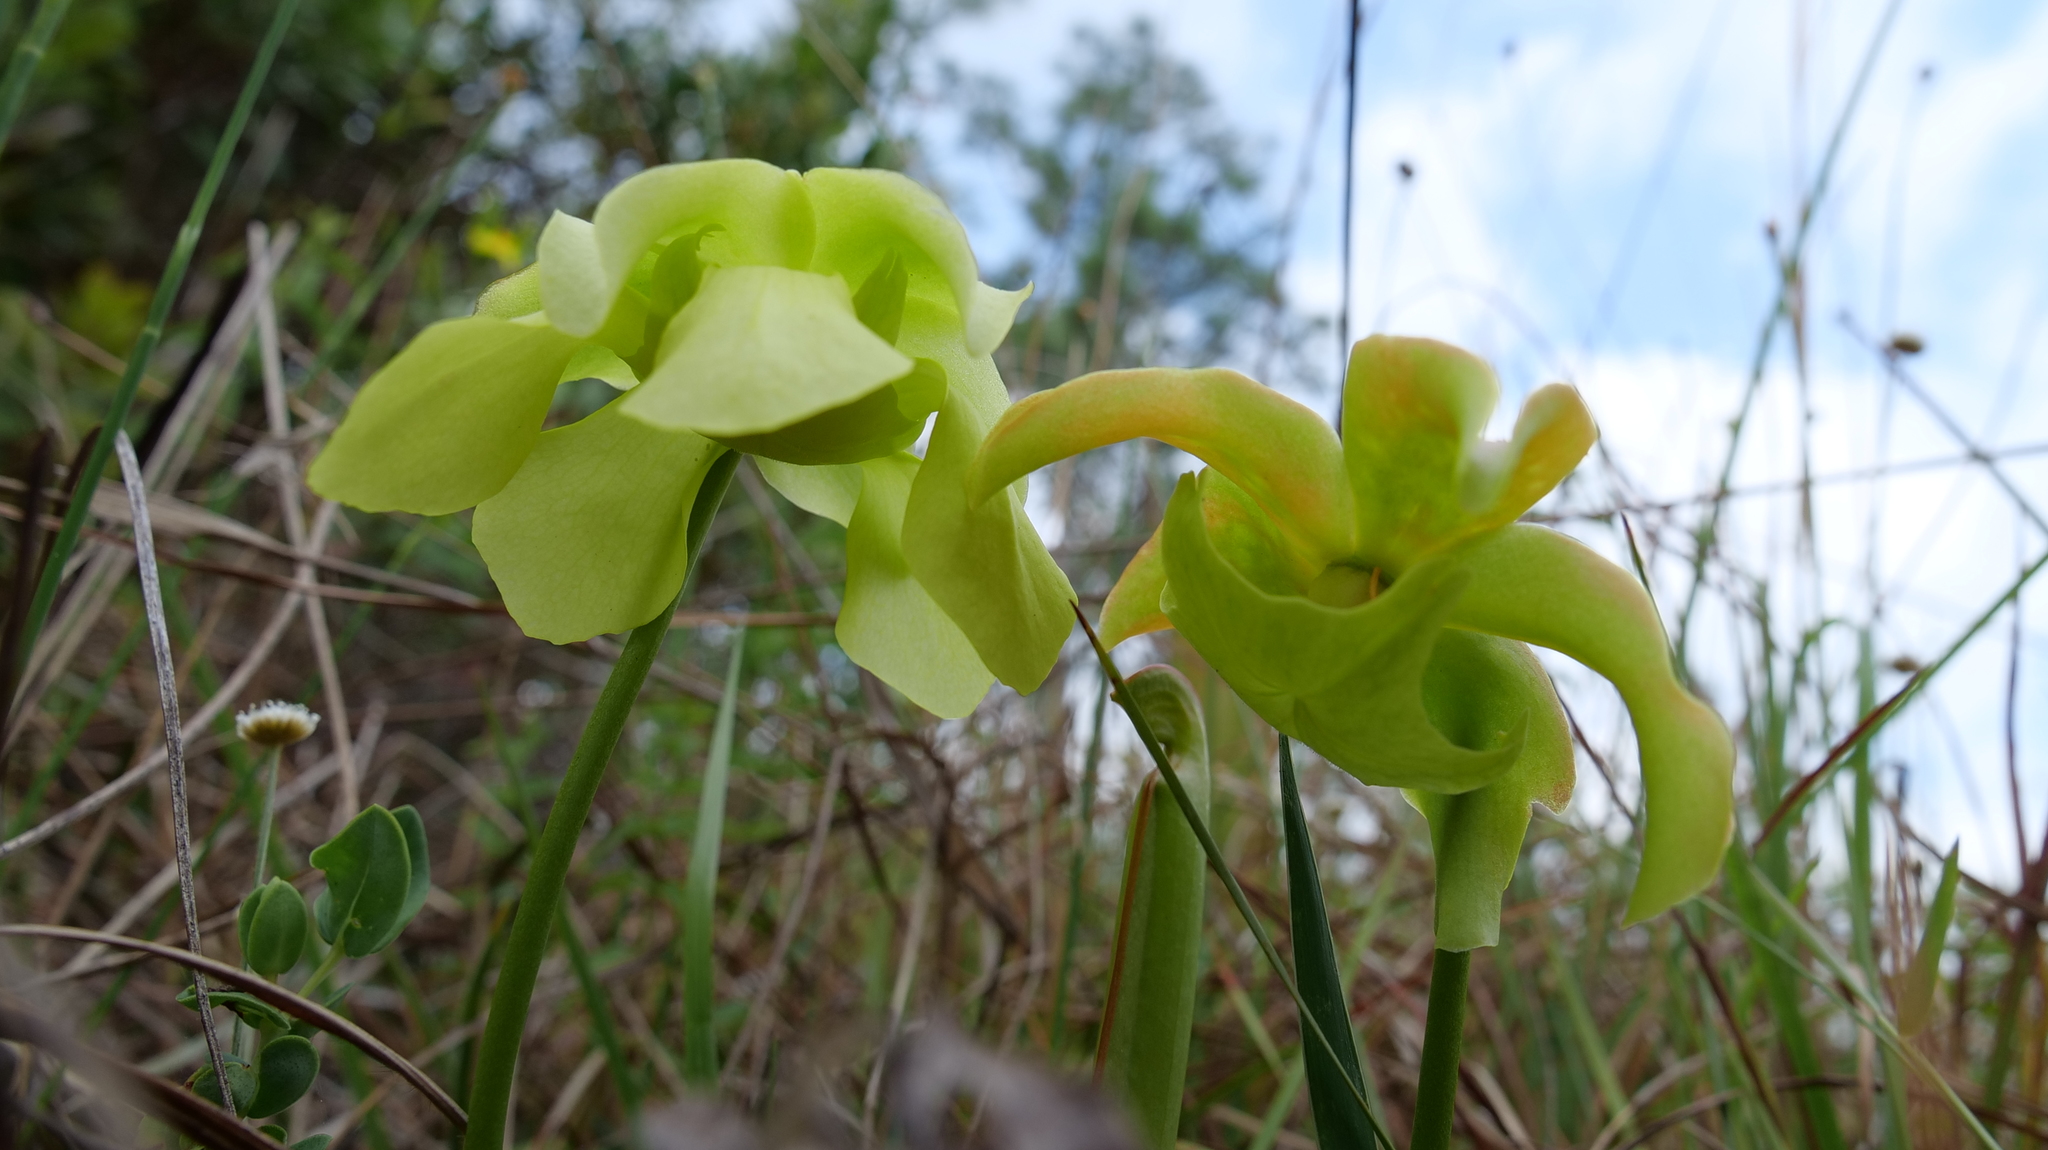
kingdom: Plantae
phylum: Tracheophyta
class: Magnoliopsida
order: Ericales
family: Sarraceniaceae
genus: Sarracenia
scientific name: Sarracenia minor
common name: Rainhat-trumpet
